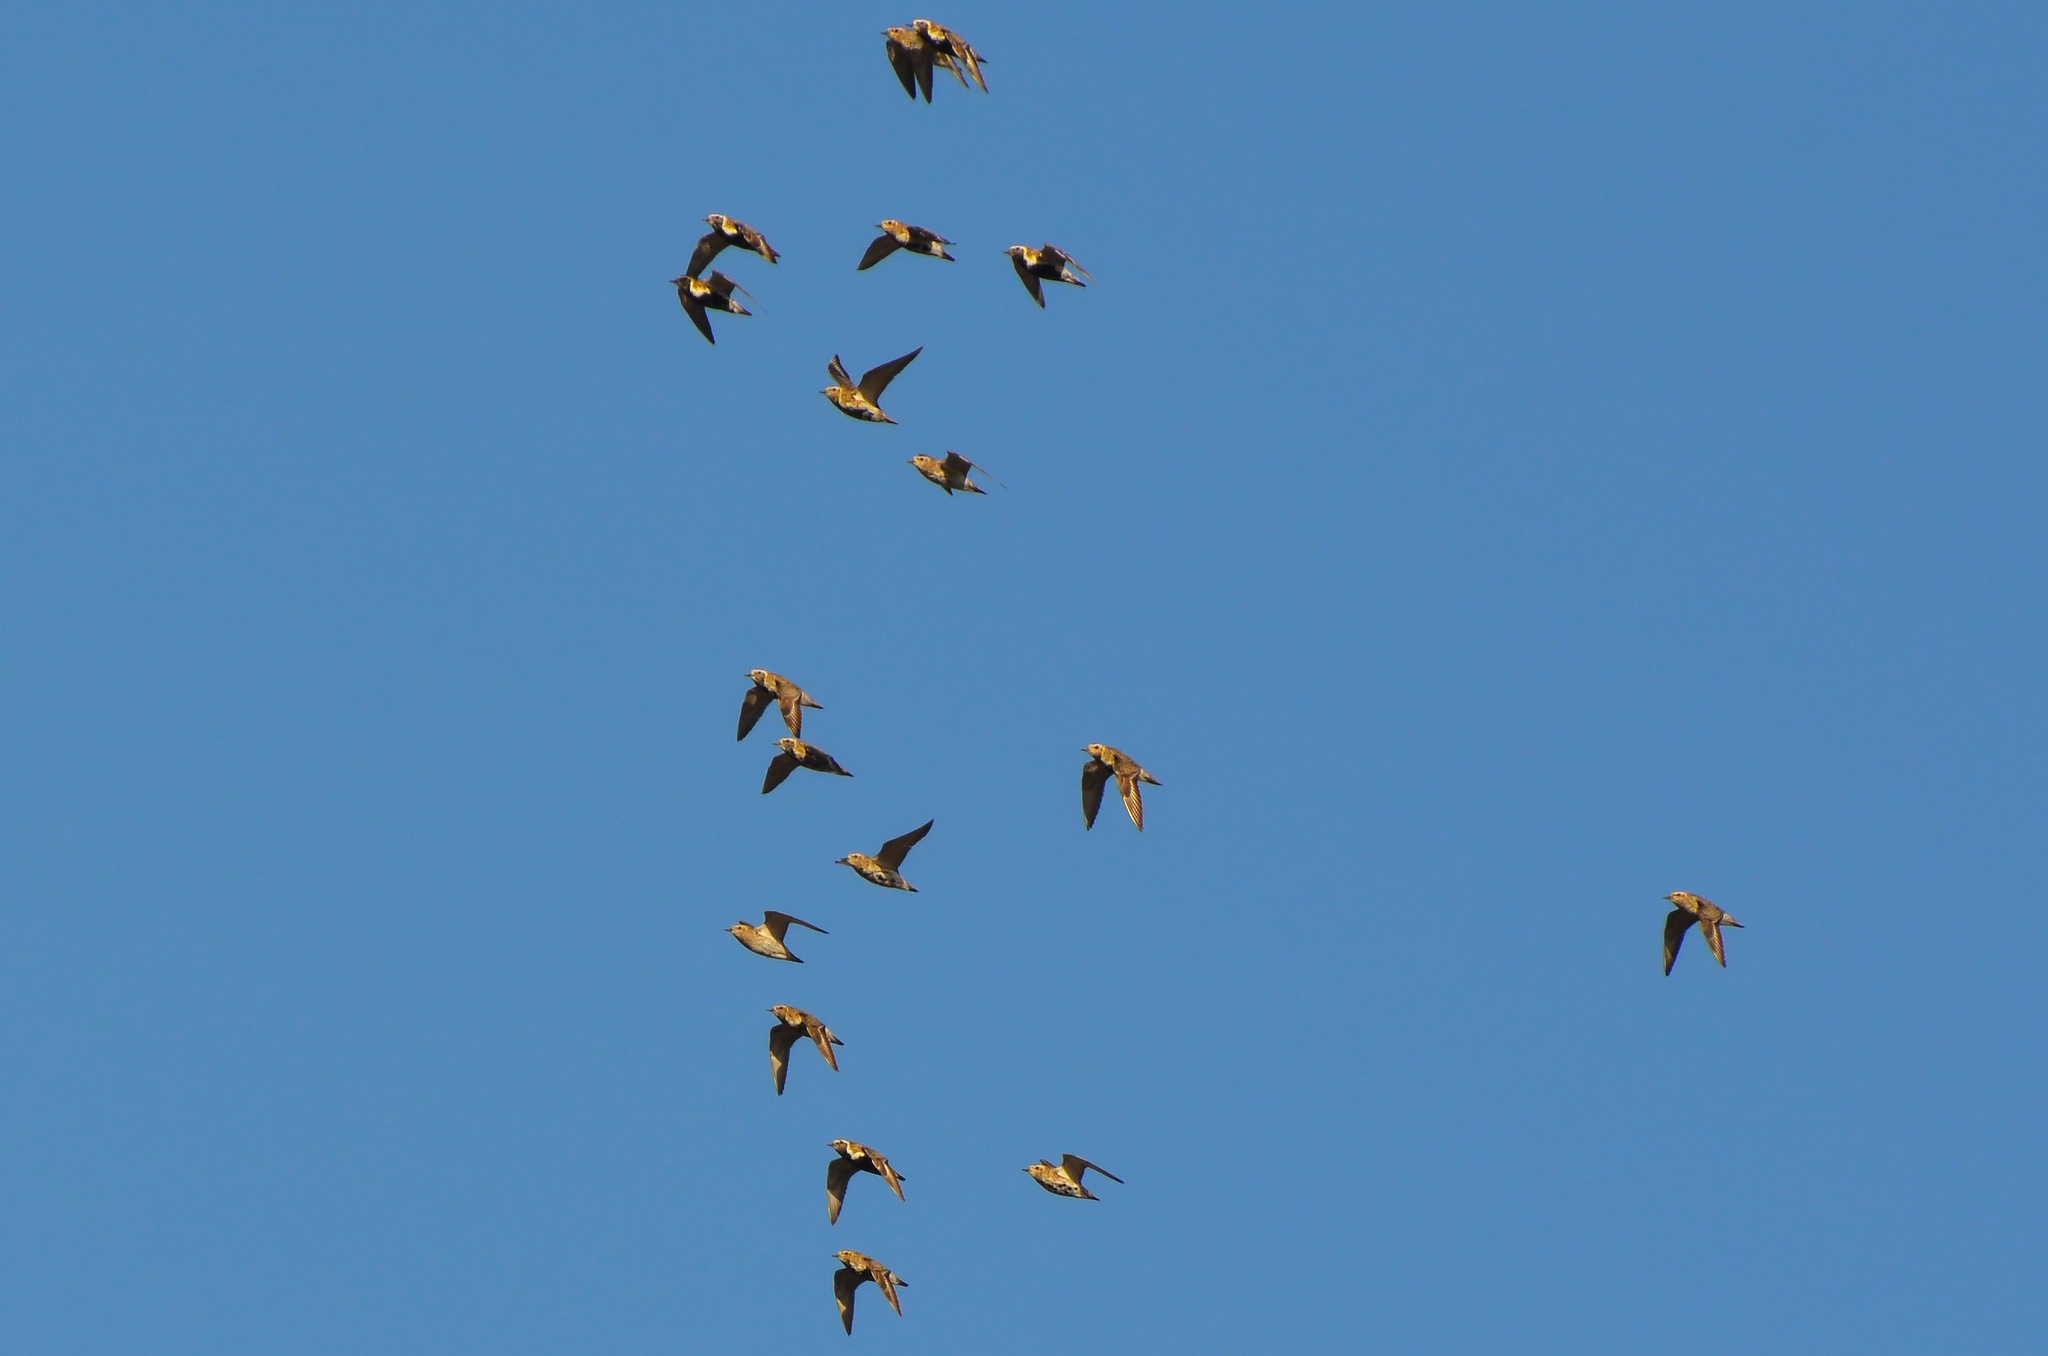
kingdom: Animalia
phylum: Chordata
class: Aves
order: Charadriiformes
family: Charadriidae
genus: Pluvialis
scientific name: Pluvialis apricaria
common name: European golden plover
